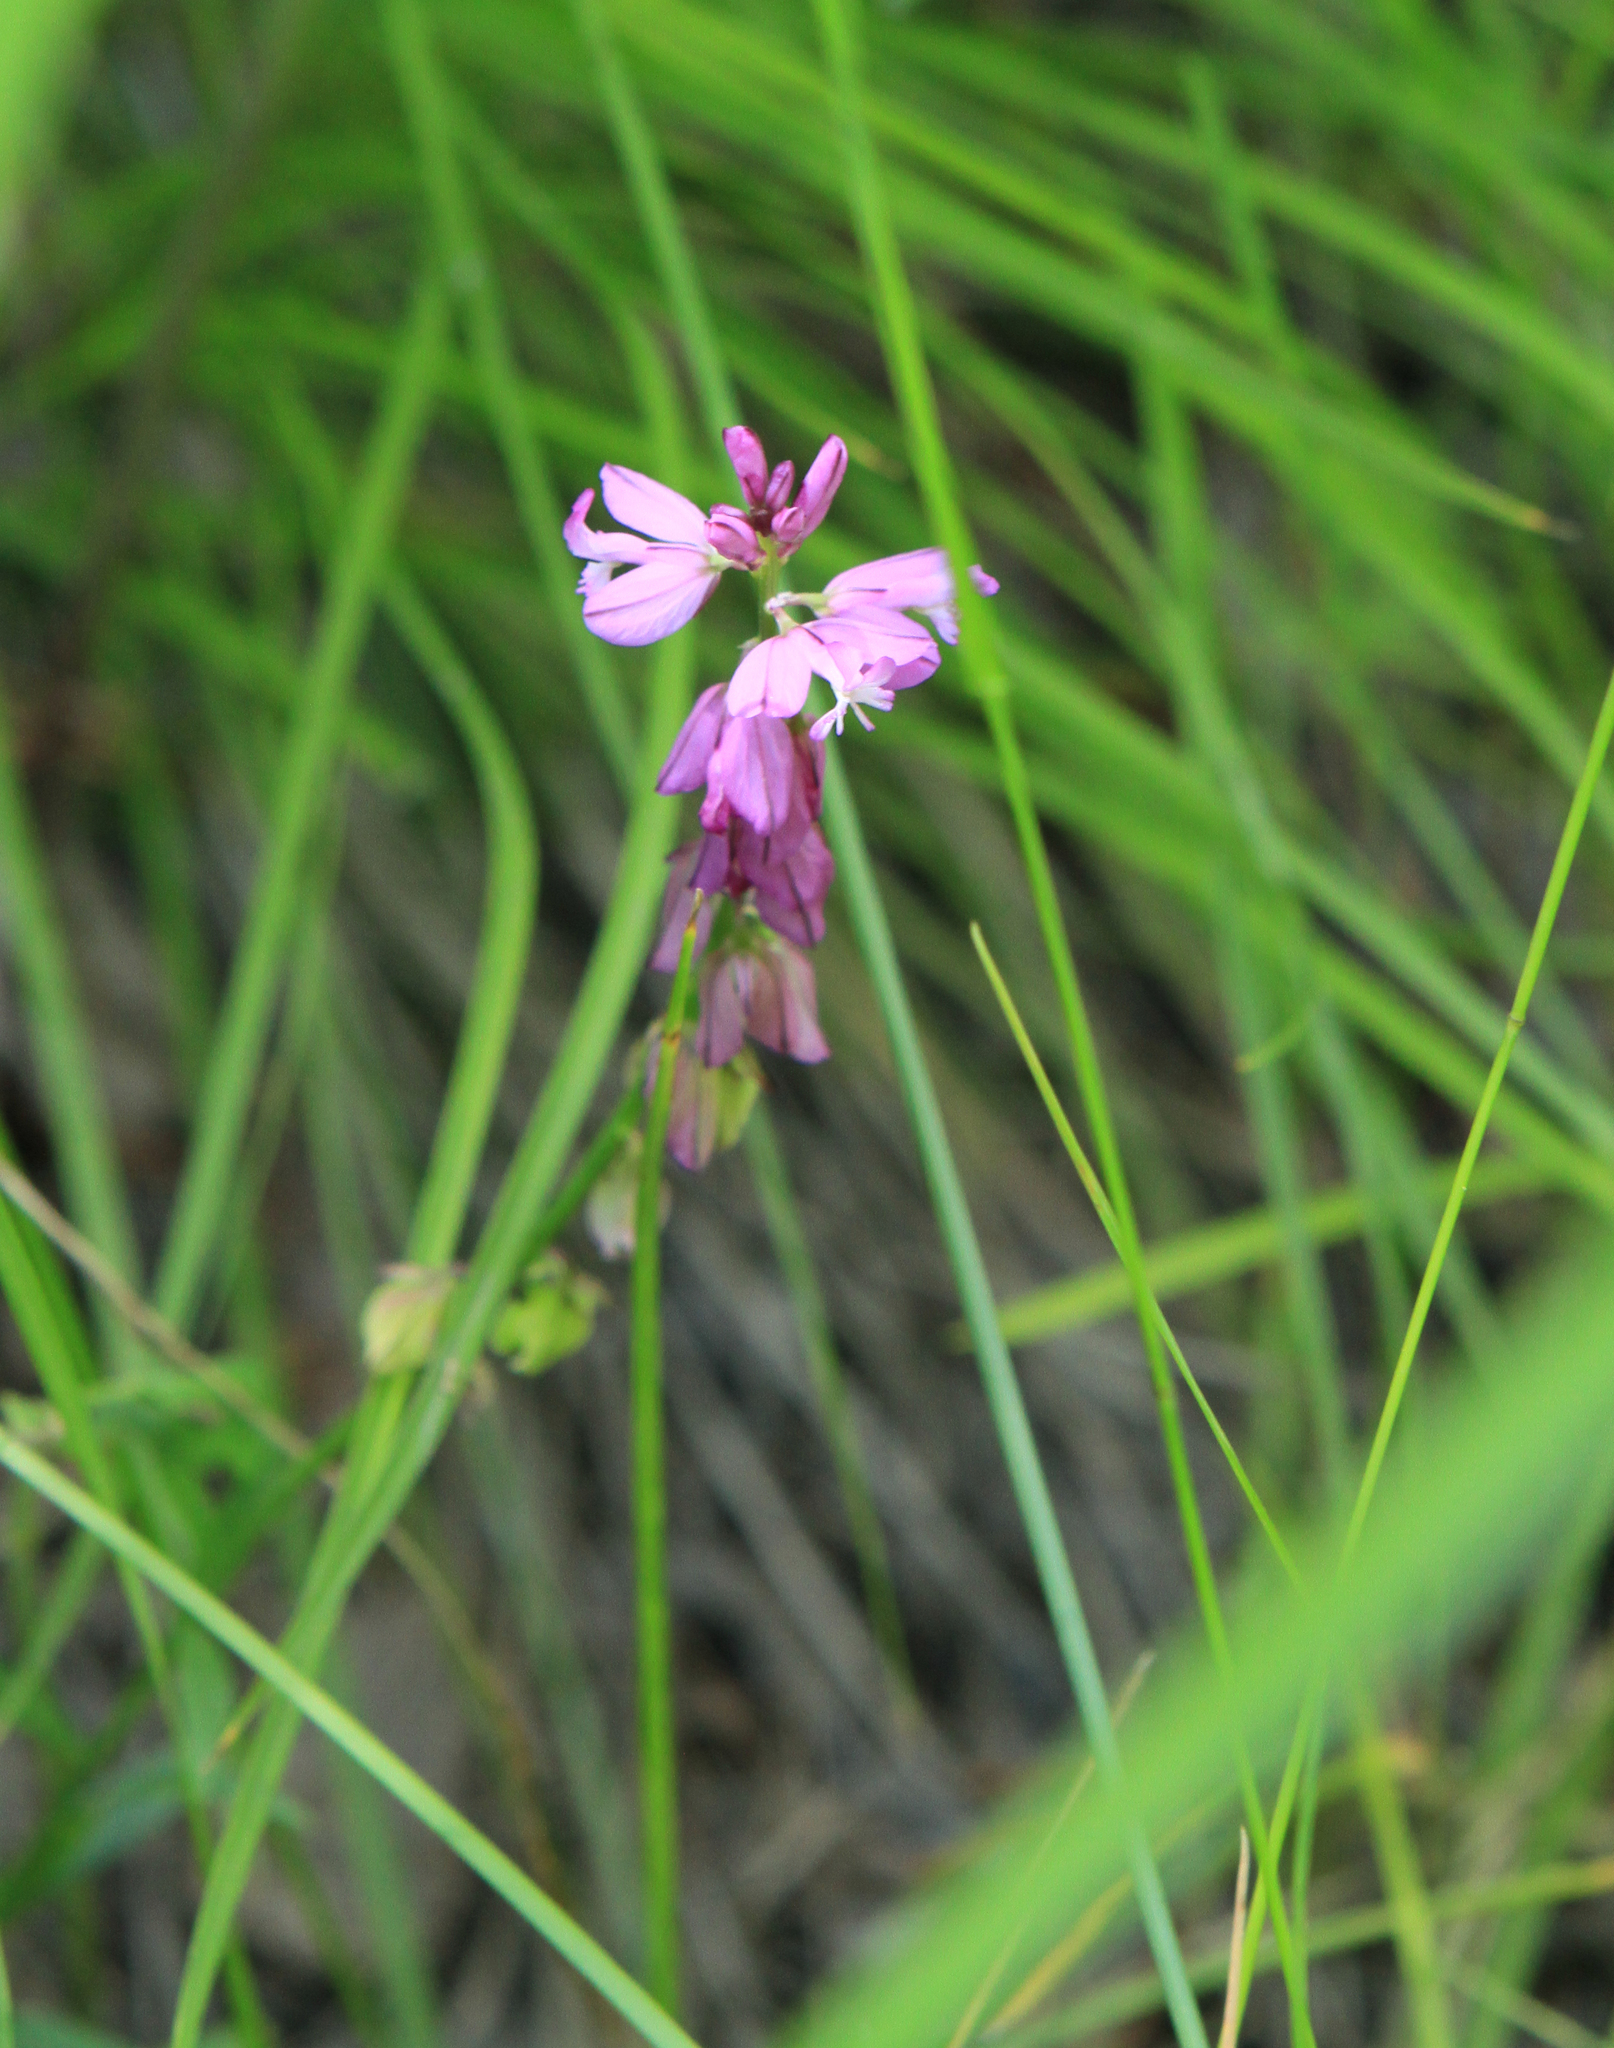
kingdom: Plantae
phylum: Tracheophyta
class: Magnoliopsida
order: Fabales
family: Polygalaceae
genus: Polygala
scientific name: Polygala comosa
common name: Tufted milkwort
